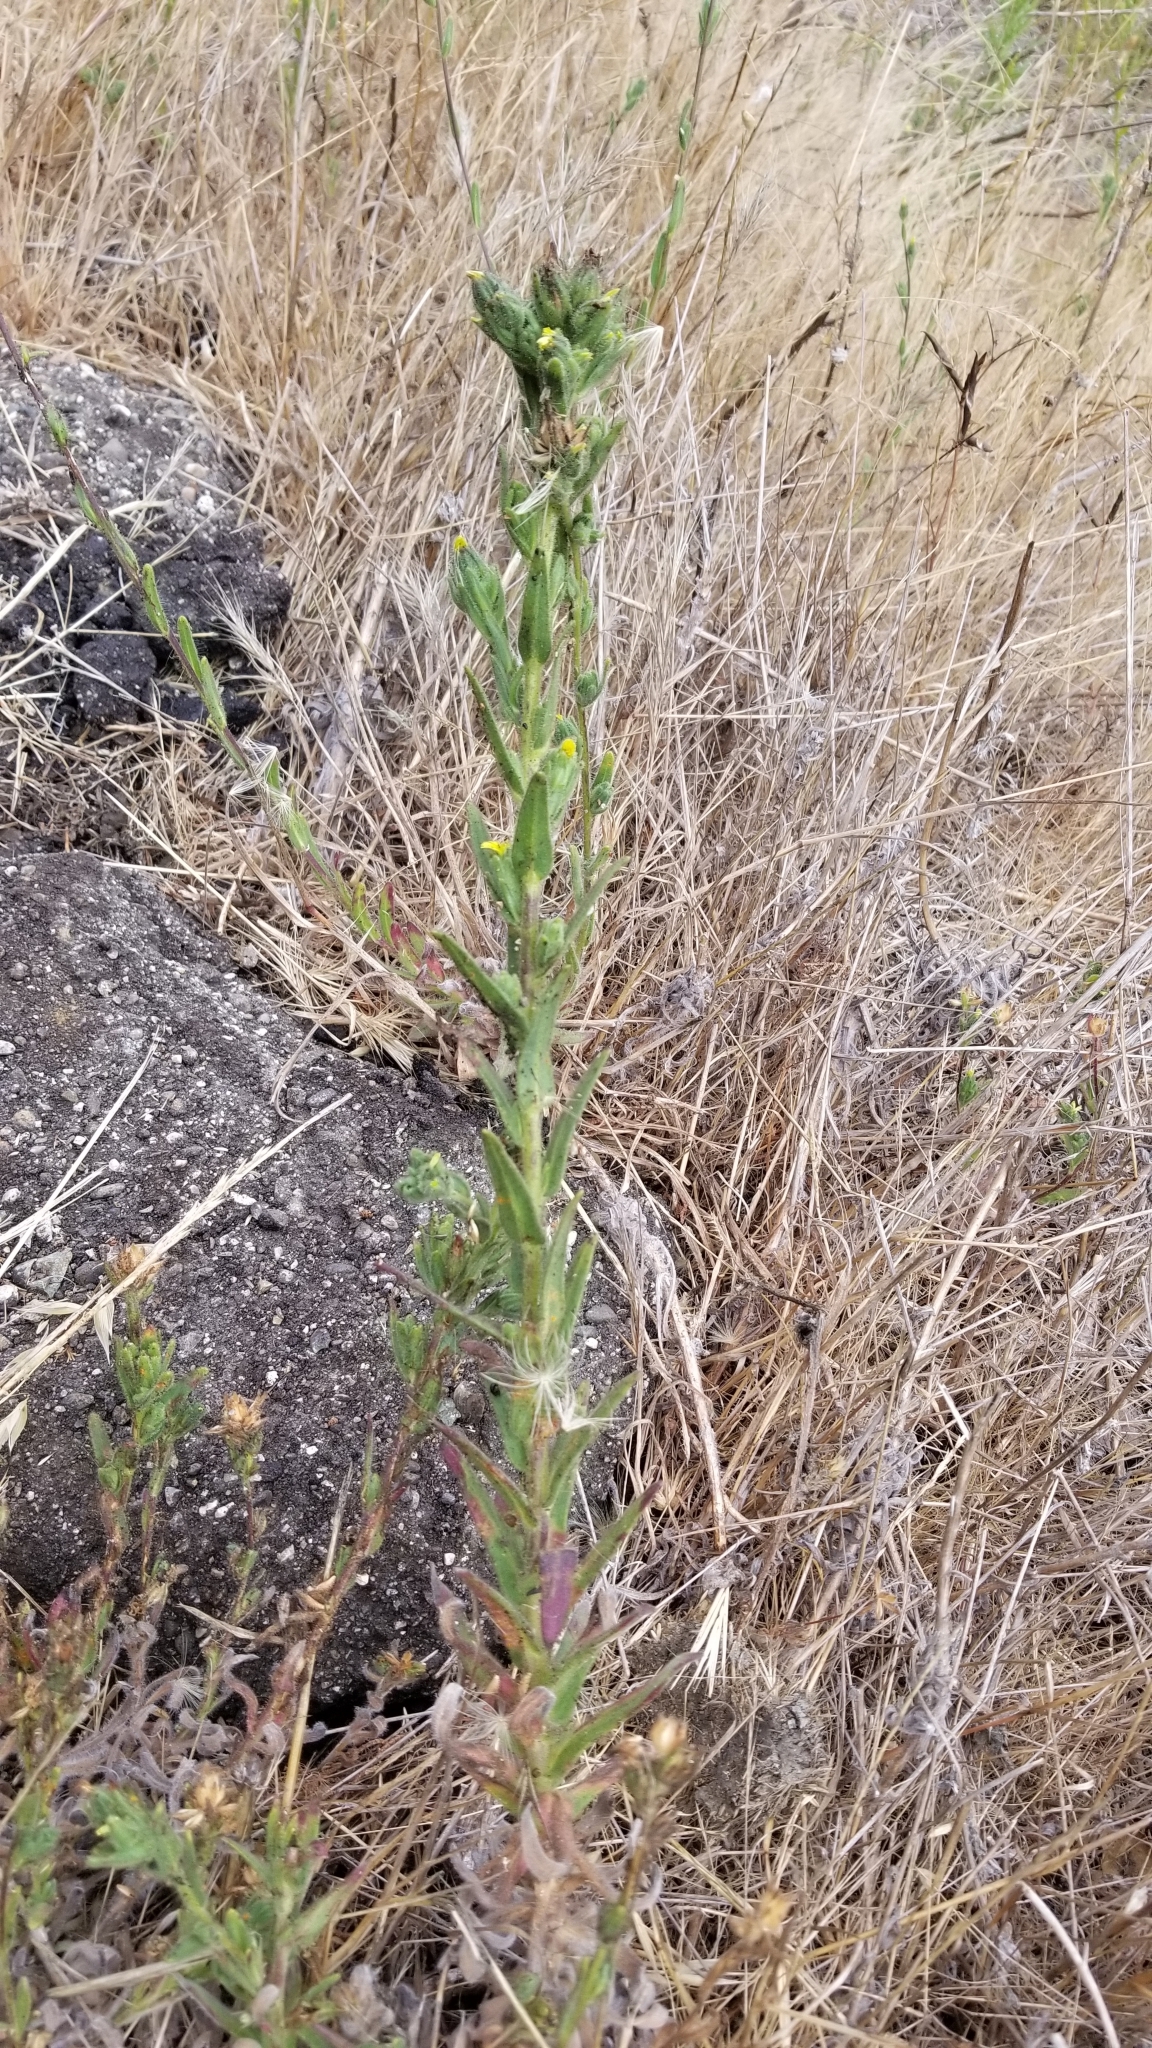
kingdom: Plantae
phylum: Tracheophyta
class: Magnoliopsida
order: Asterales
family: Asteraceae
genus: Madia
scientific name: Madia sativa
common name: Coast tarweed
